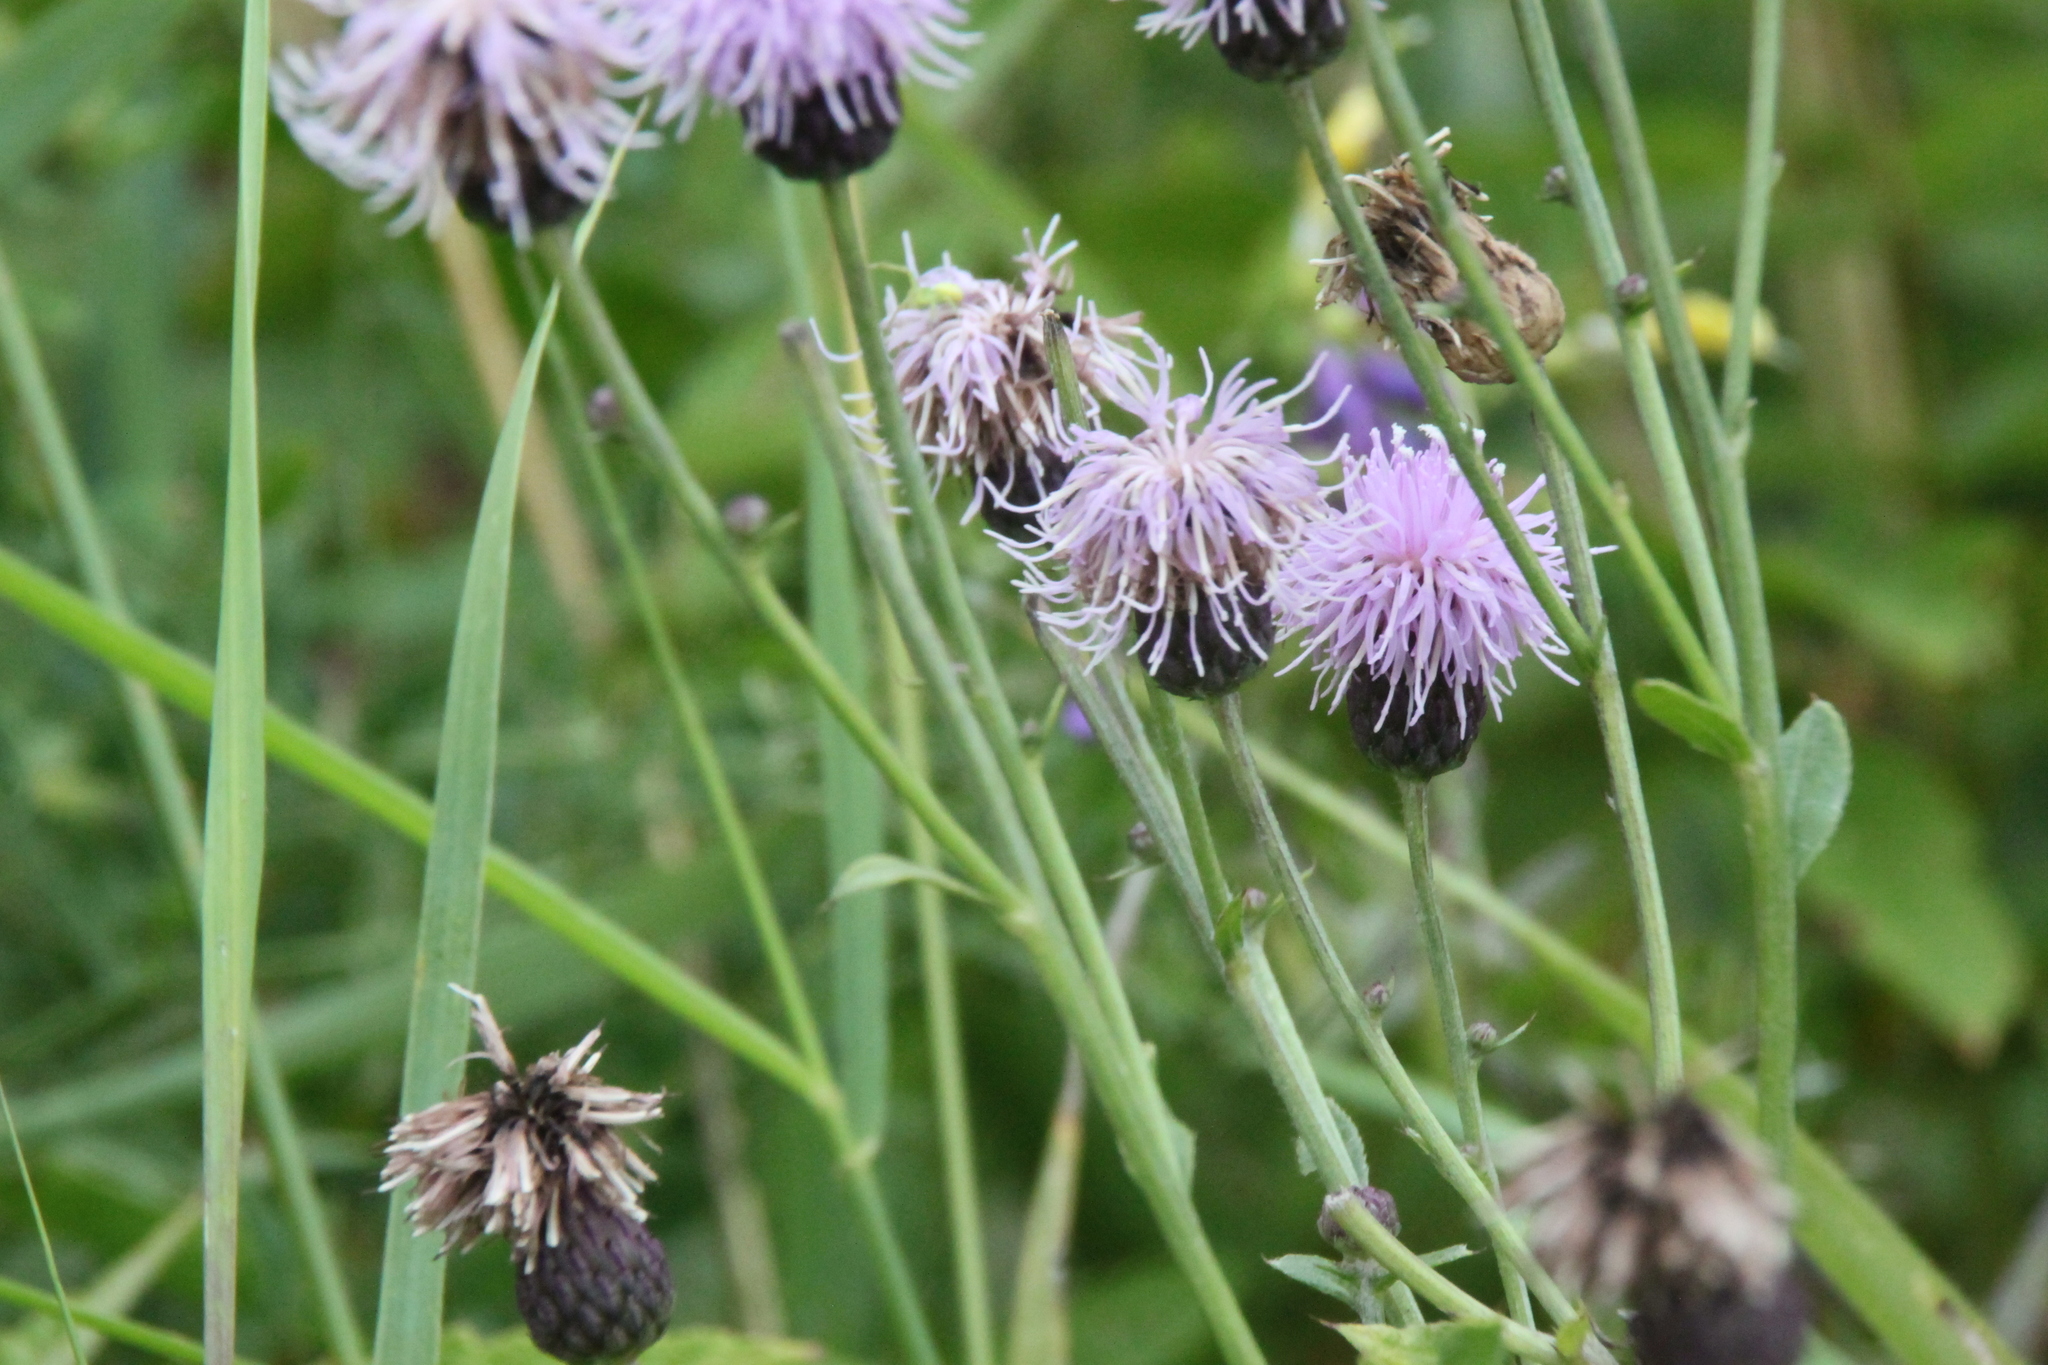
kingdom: Plantae
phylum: Tracheophyta
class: Magnoliopsida
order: Asterales
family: Asteraceae
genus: Cirsium
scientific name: Cirsium arvense
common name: Creeping thistle
